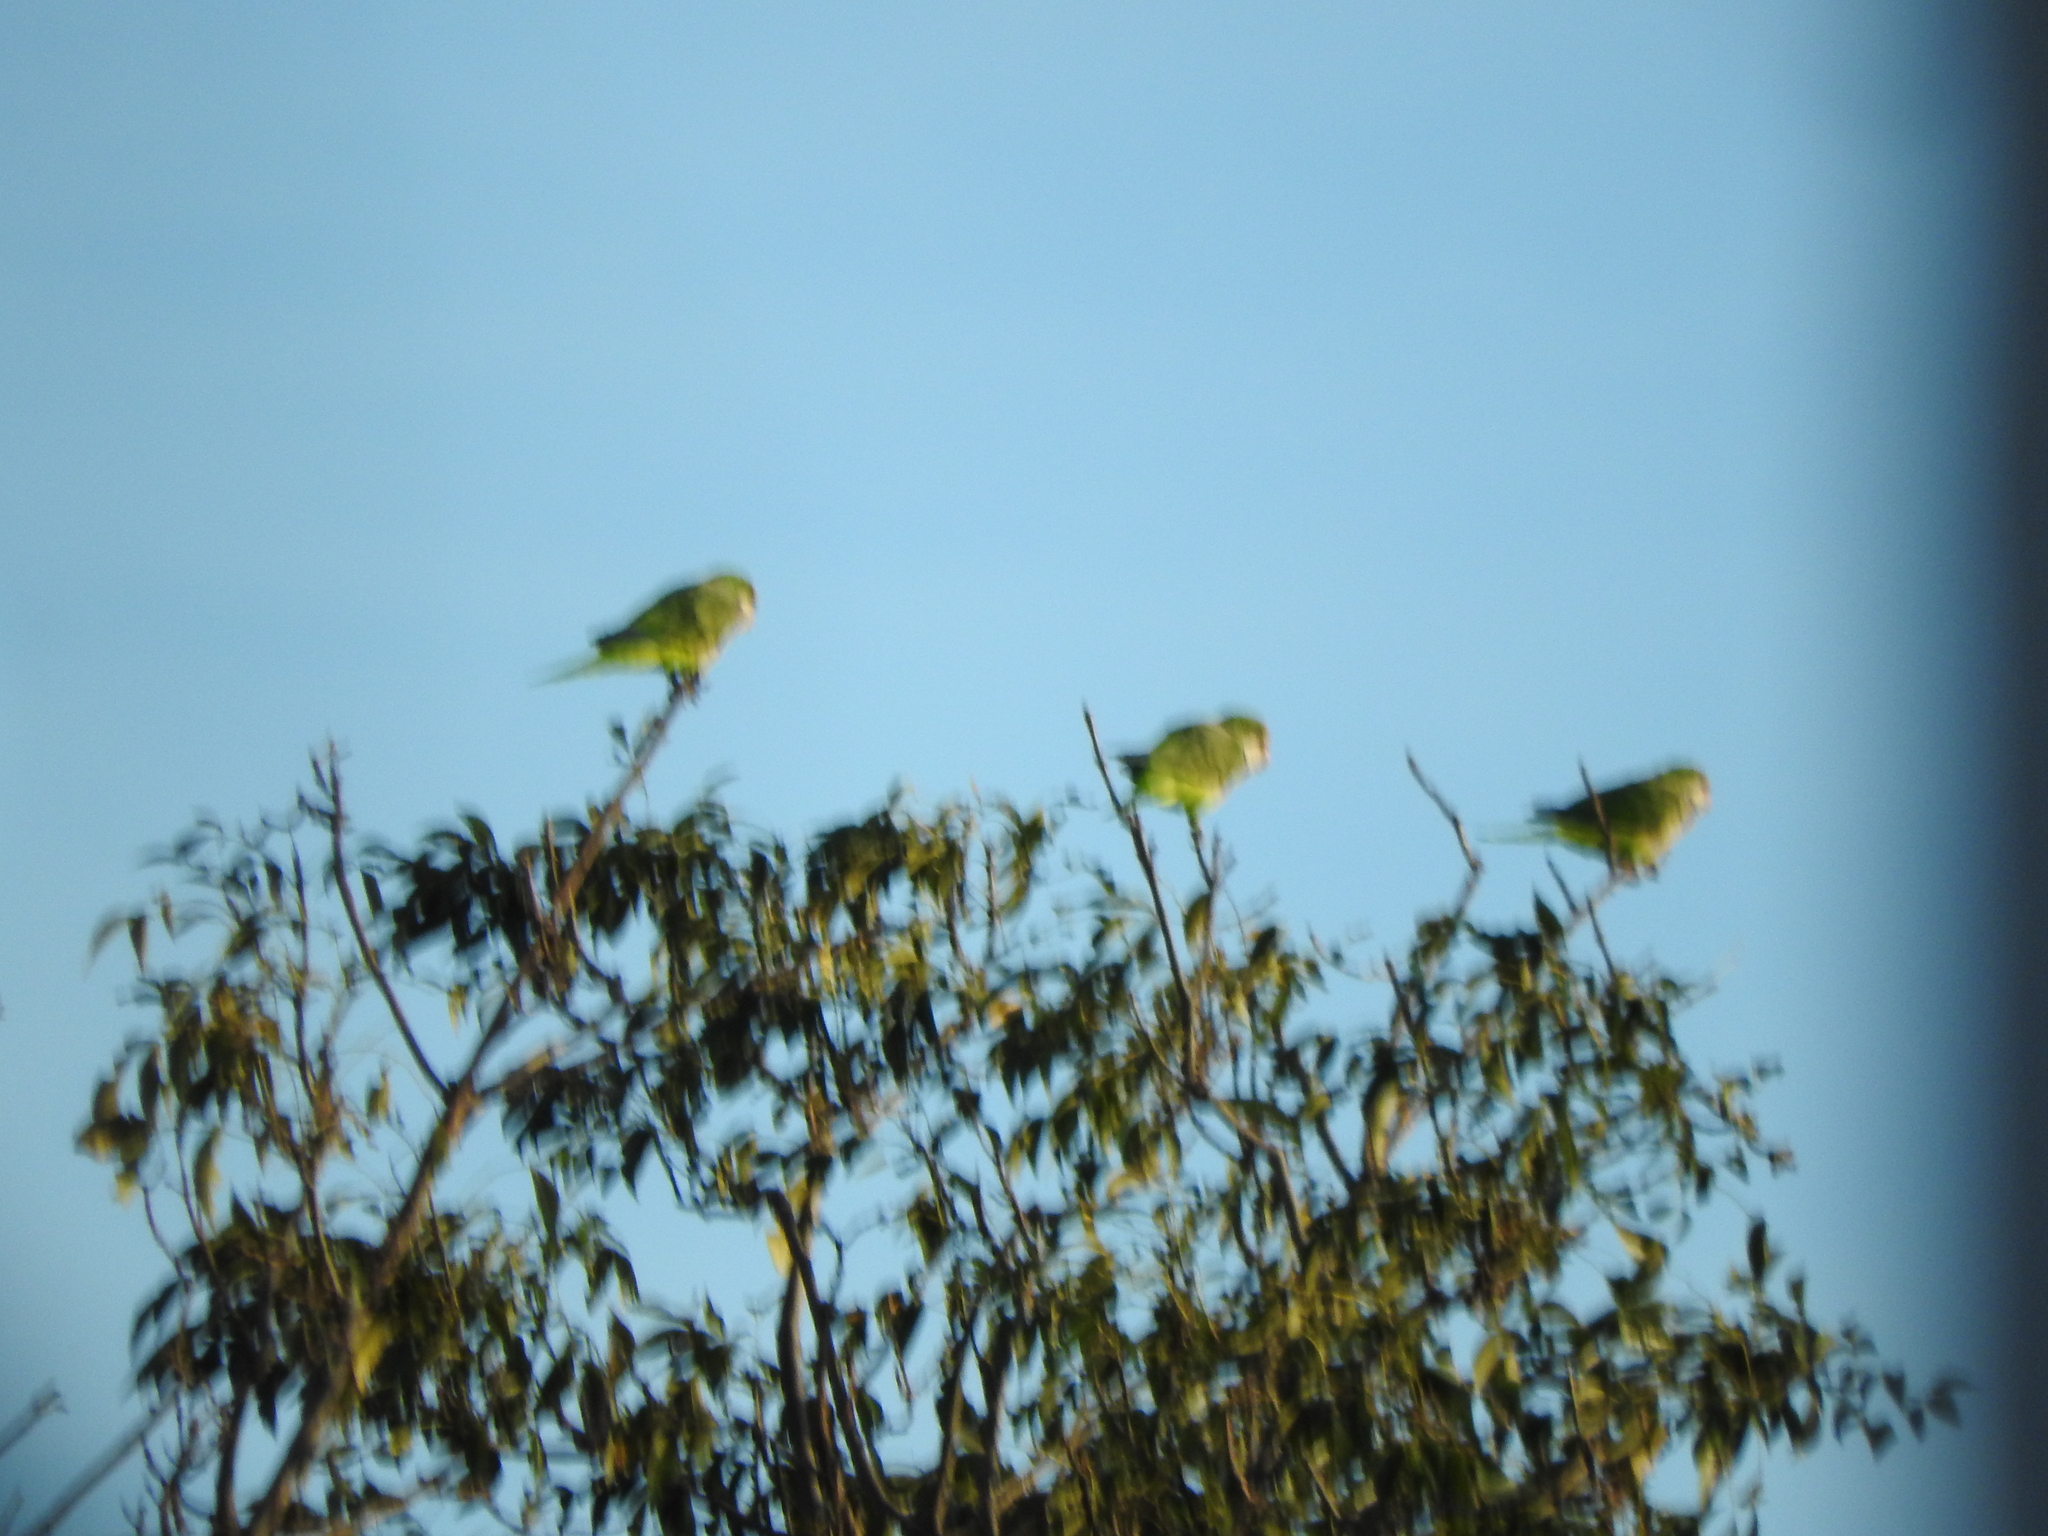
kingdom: Animalia
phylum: Chordata
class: Aves
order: Psittaciformes
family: Psittacidae
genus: Myiopsitta
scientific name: Myiopsitta monachus
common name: Monk parakeet
